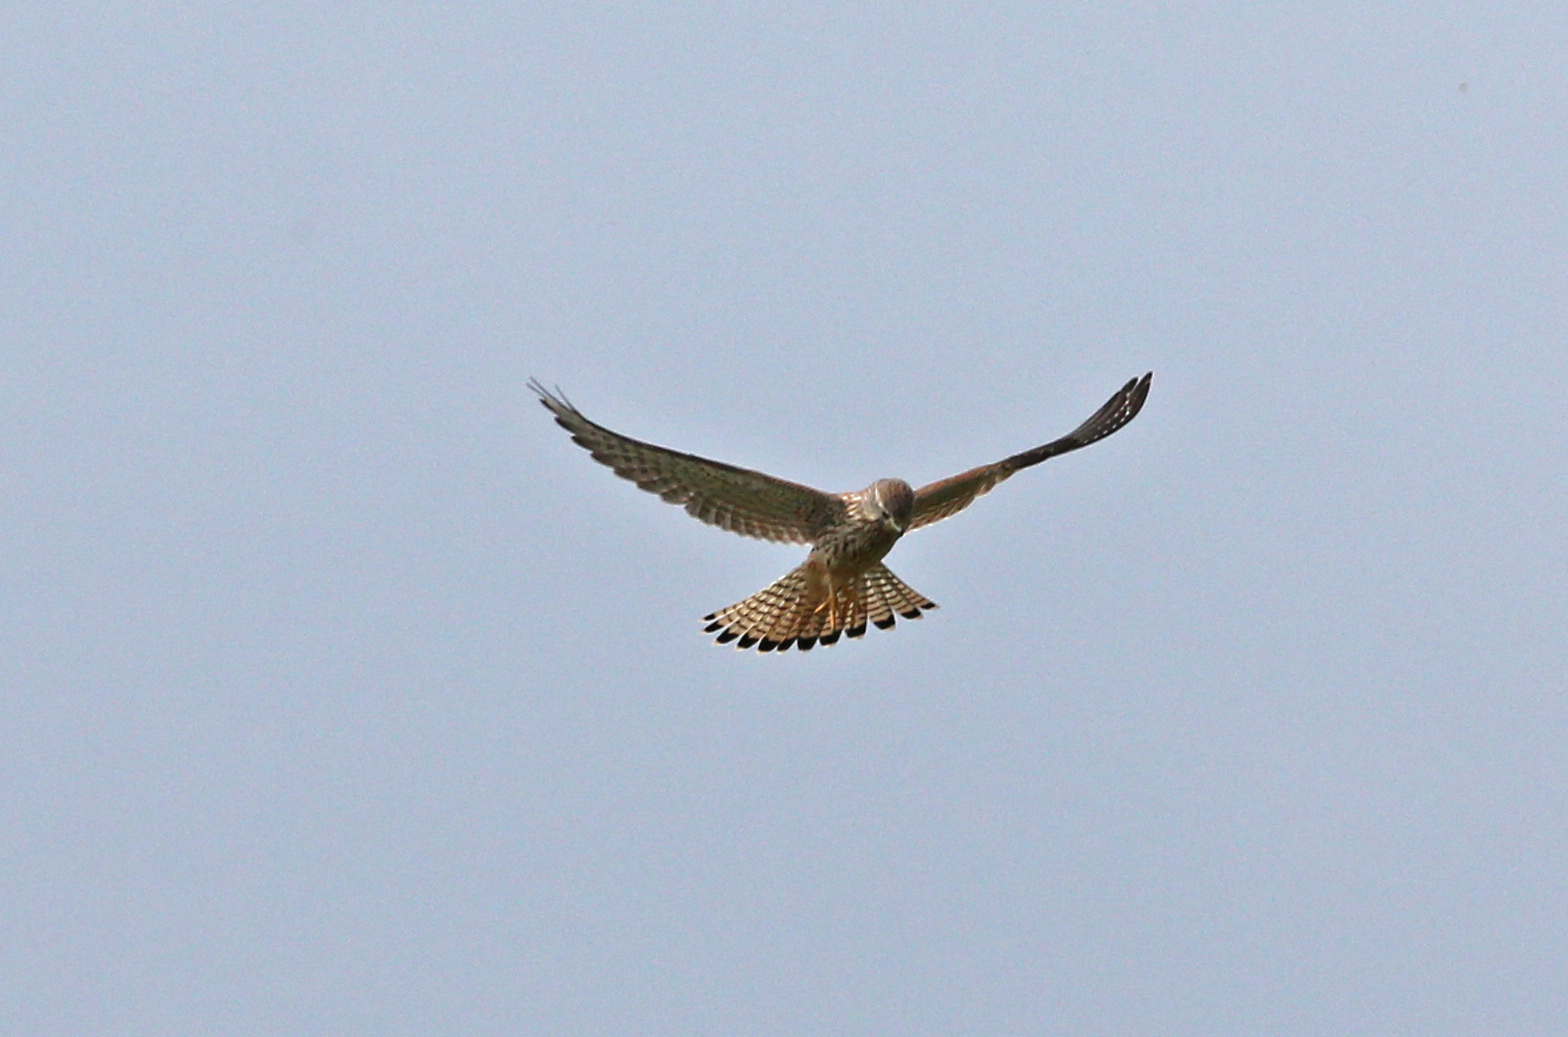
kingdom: Animalia
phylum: Chordata
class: Aves
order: Falconiformes
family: Falconidae
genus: Falco
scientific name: Falco tinnunculus
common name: Common kestrel
